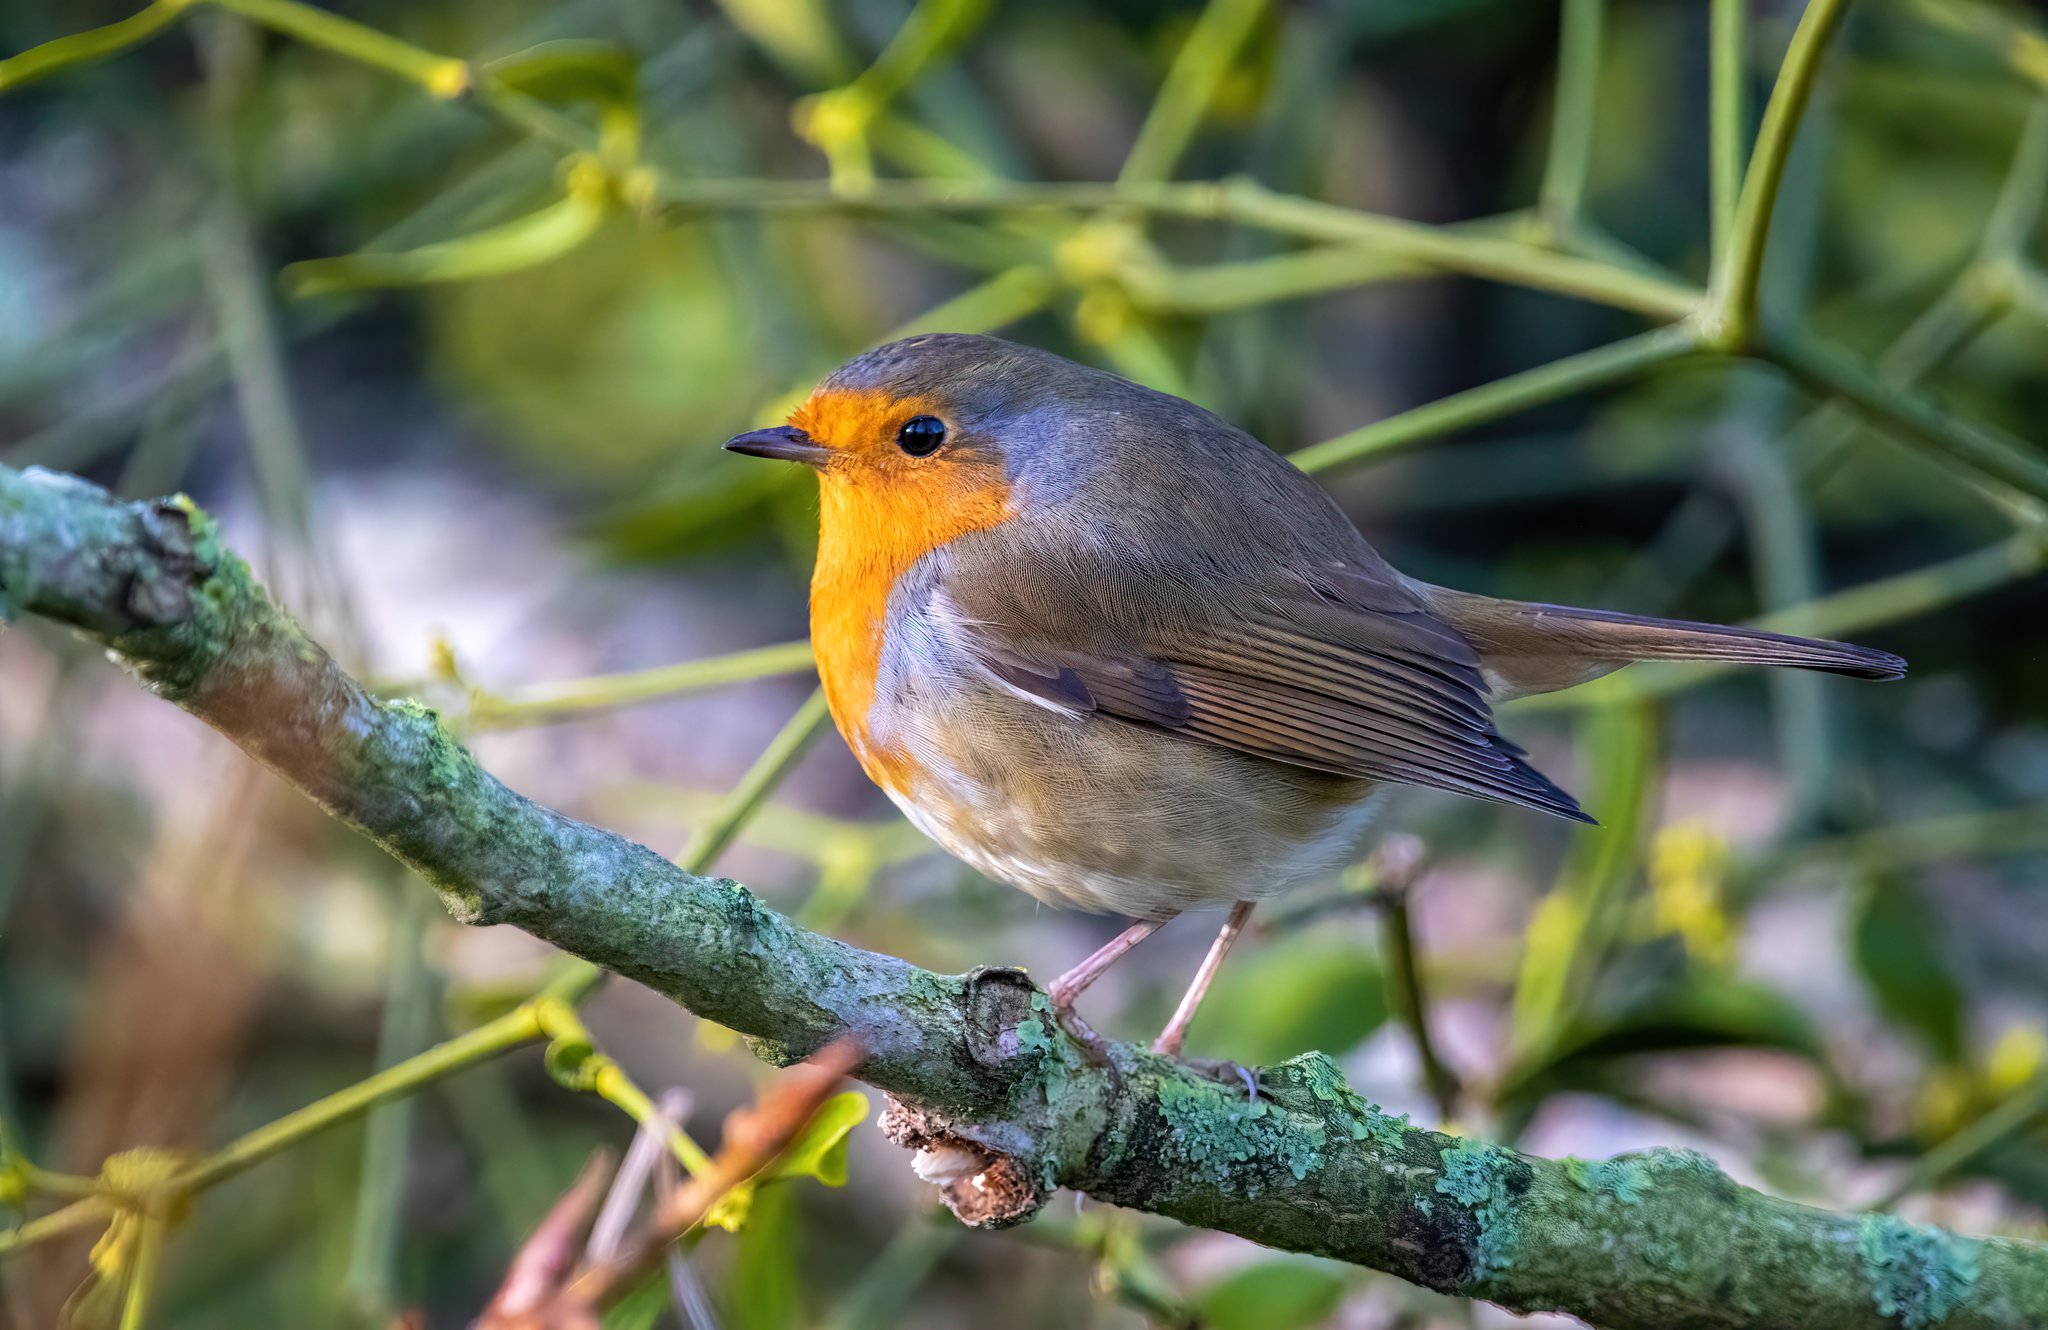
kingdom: Animalia
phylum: Chordata
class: Aves
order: Passeriformes
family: Muscicapidae
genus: Erithacus
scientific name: Erithacus rubecula
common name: European robin
